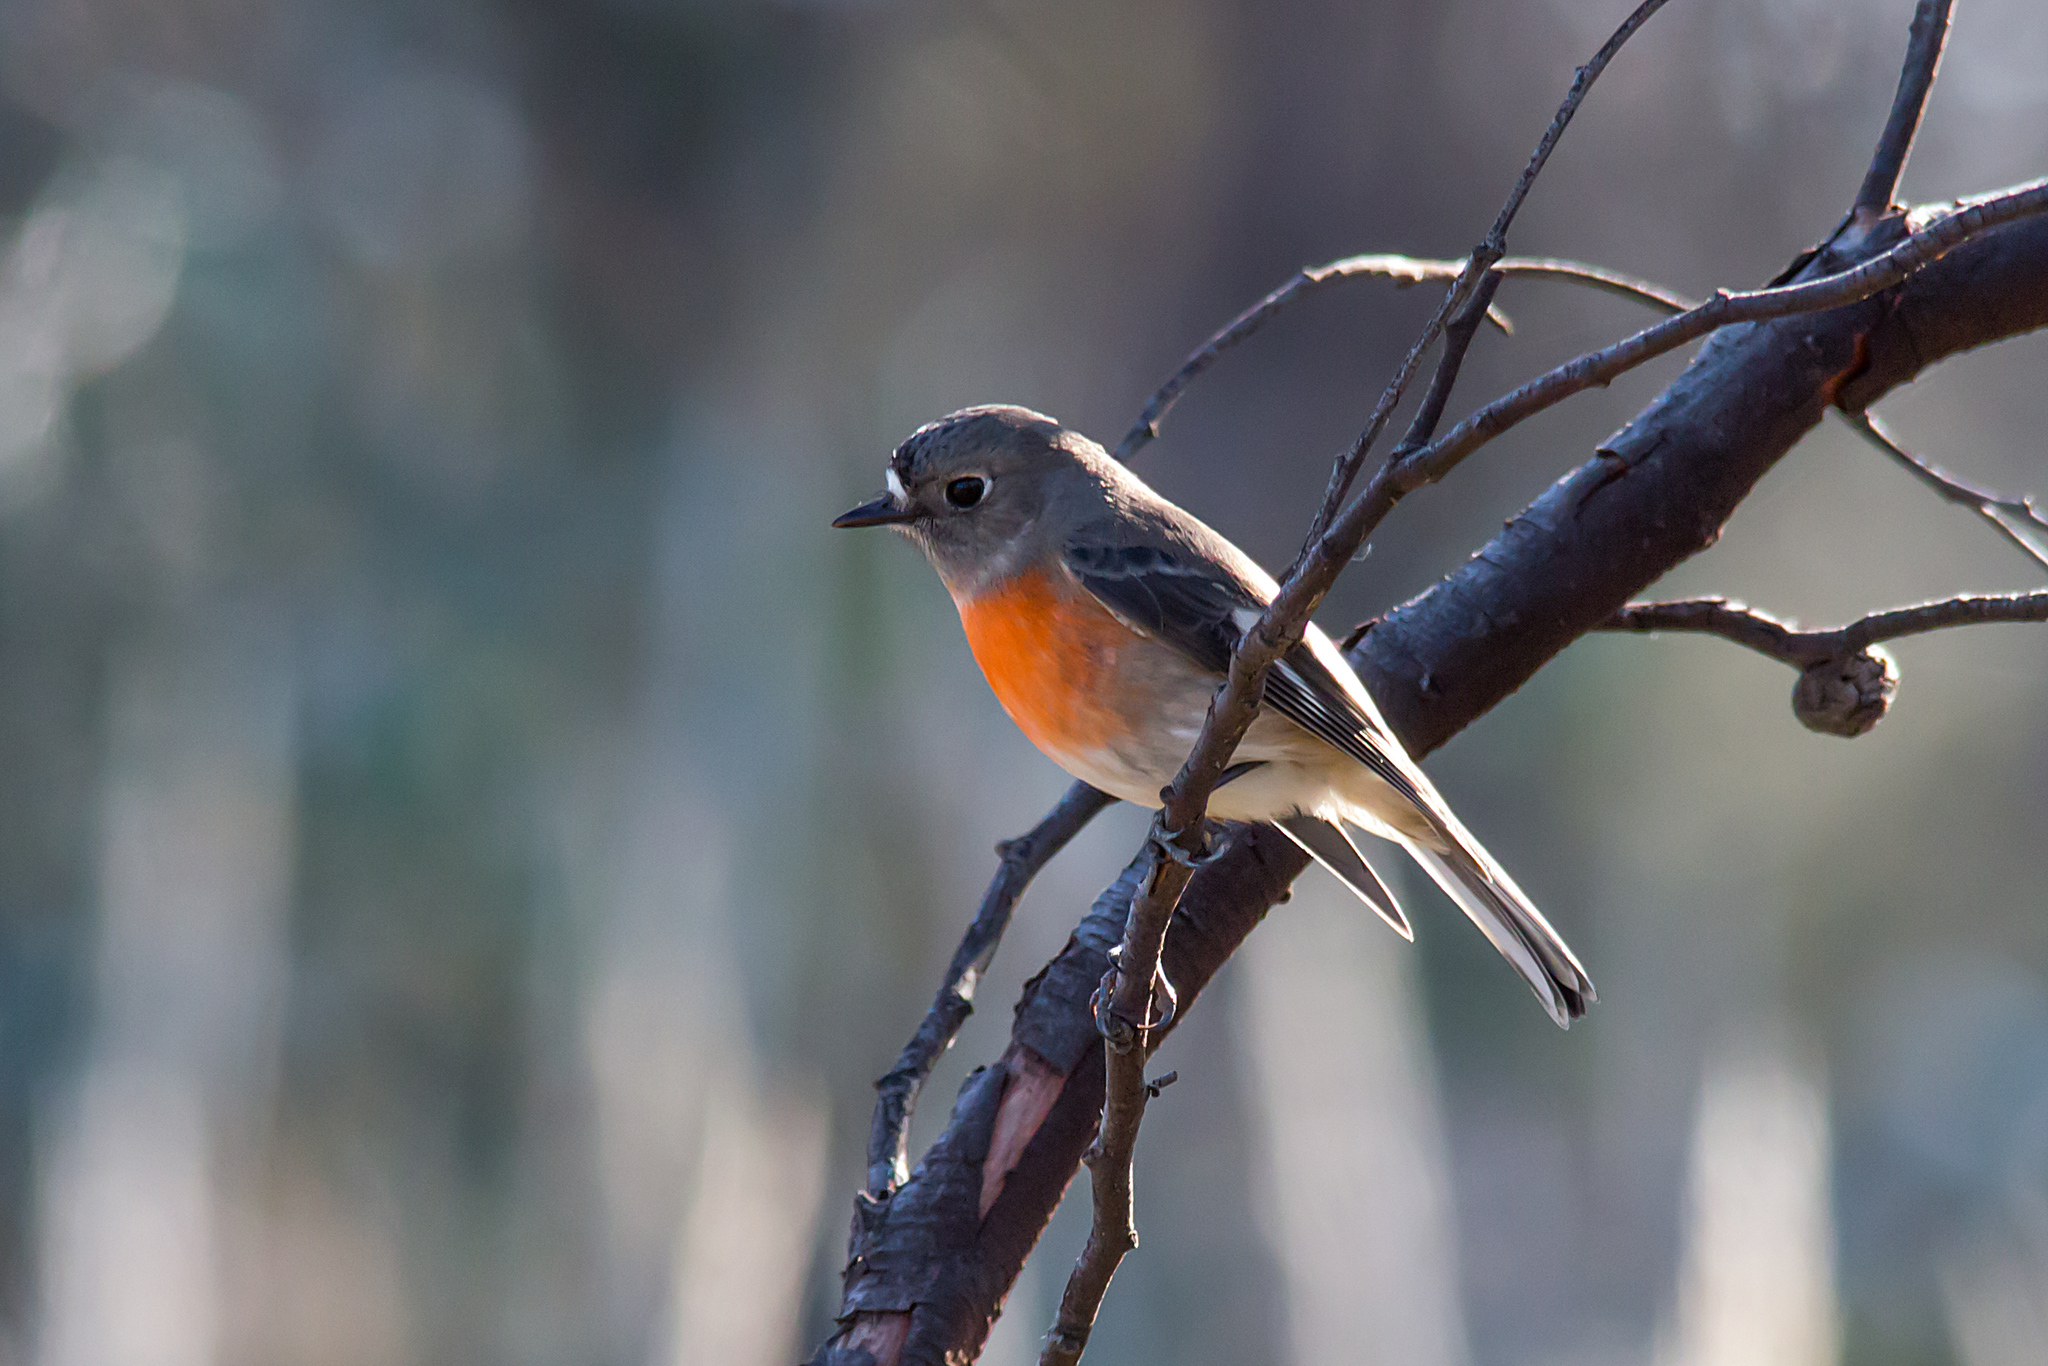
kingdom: Animalia
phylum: Chordata
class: Aves
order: Passeriformes
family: Petroicidae
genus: Petroica
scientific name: Petroica boodang
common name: Scarlet robin
